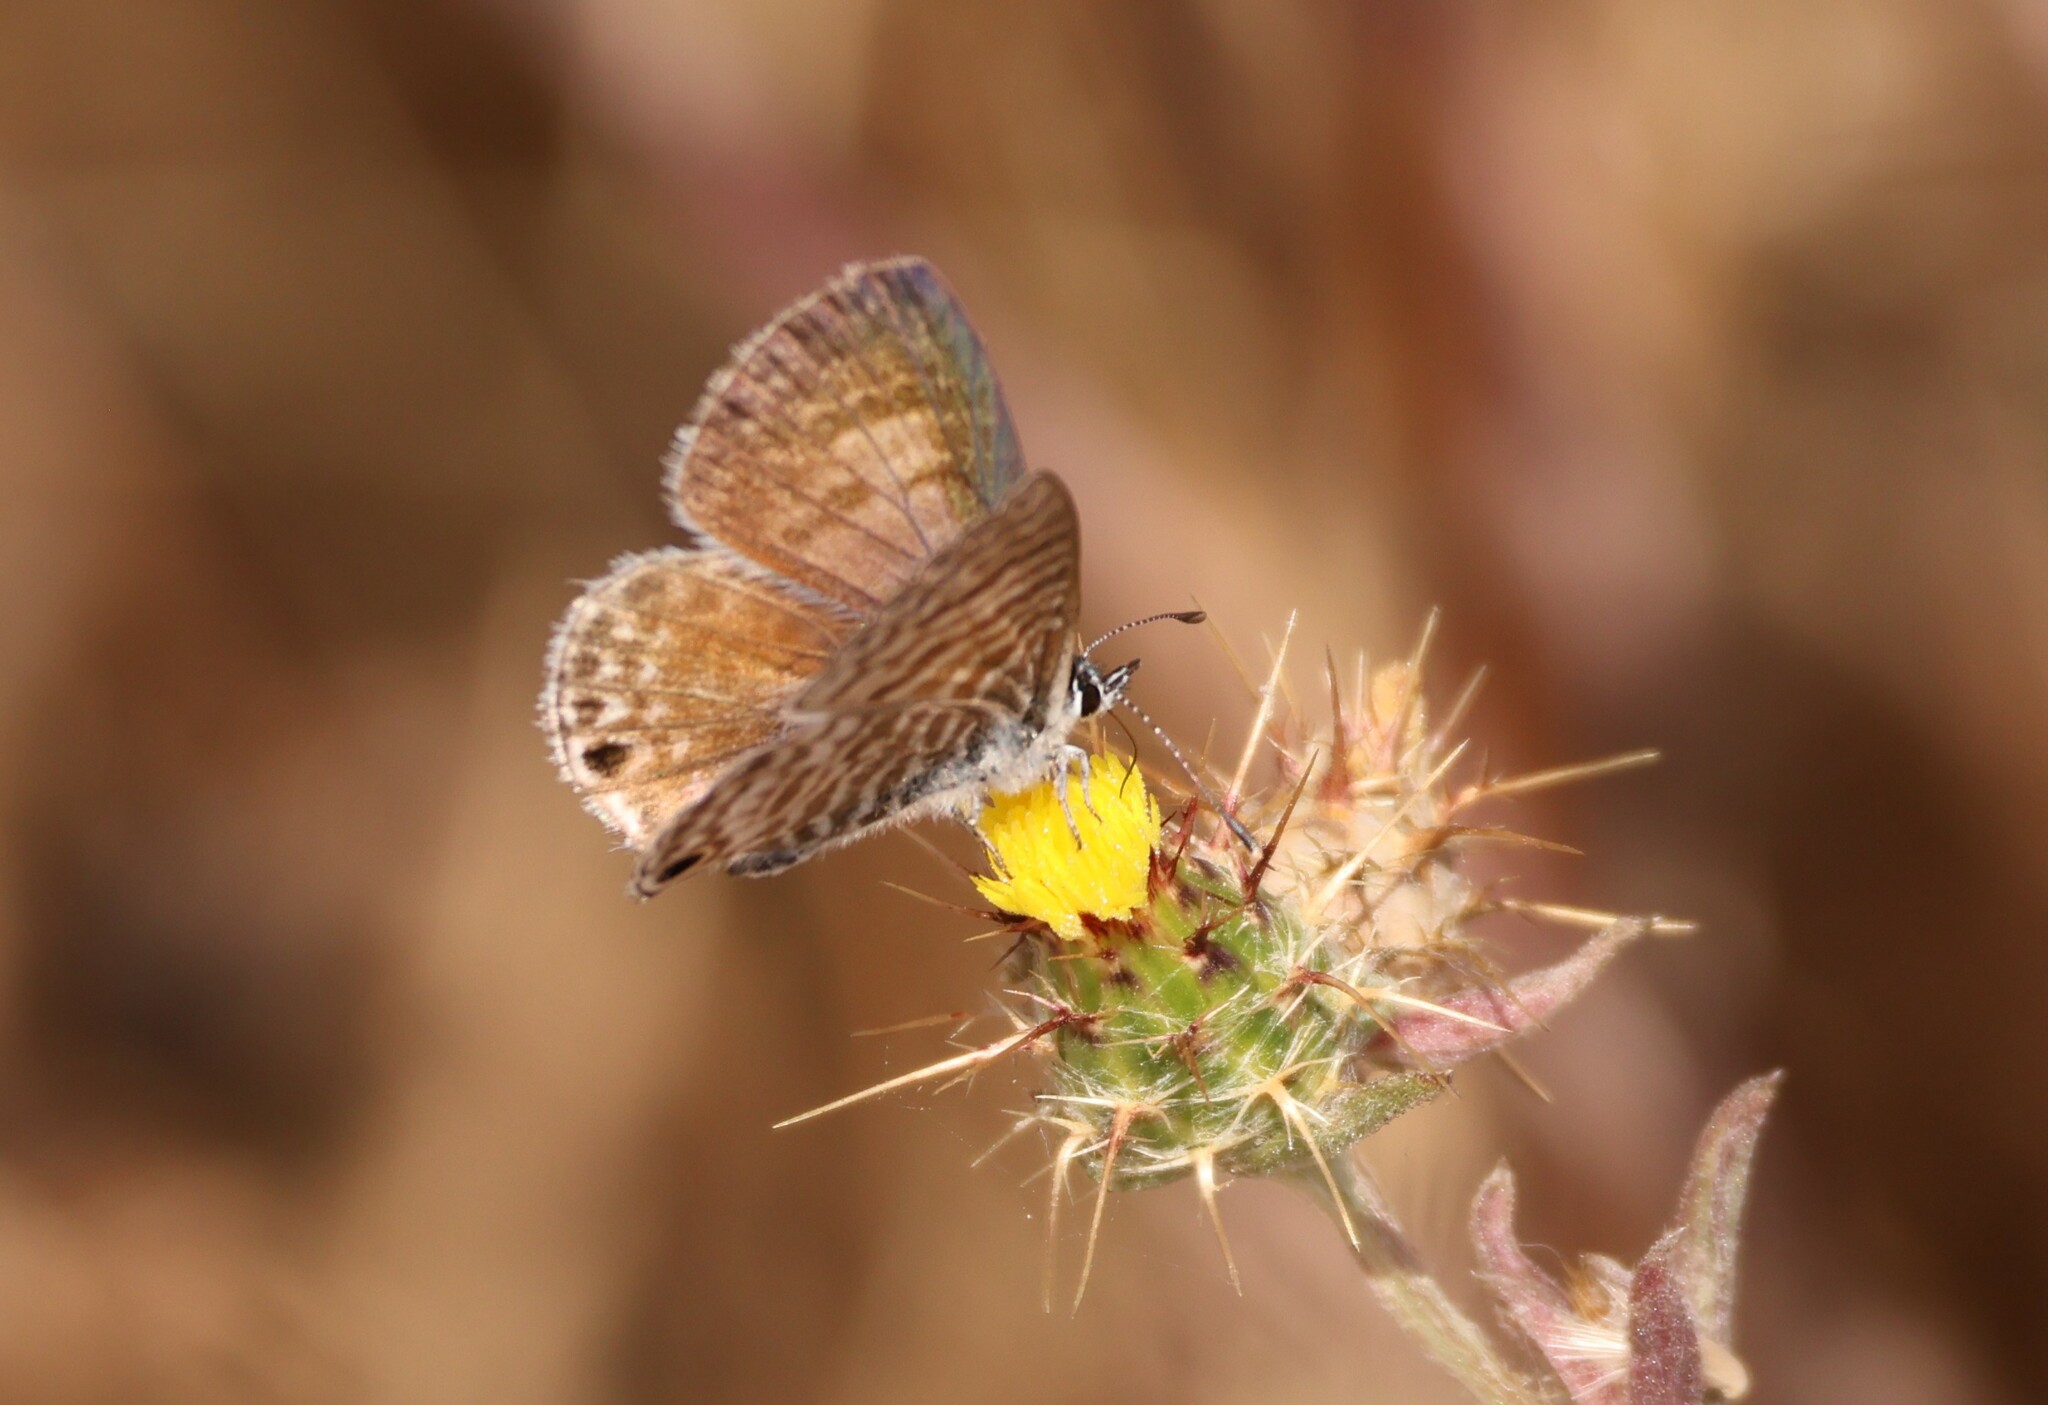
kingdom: Animalia
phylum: Arthropoda
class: Insecta
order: Lepidoptera
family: Lycaenidae
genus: Leptotes
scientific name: Leptotes marina
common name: Marine blue
